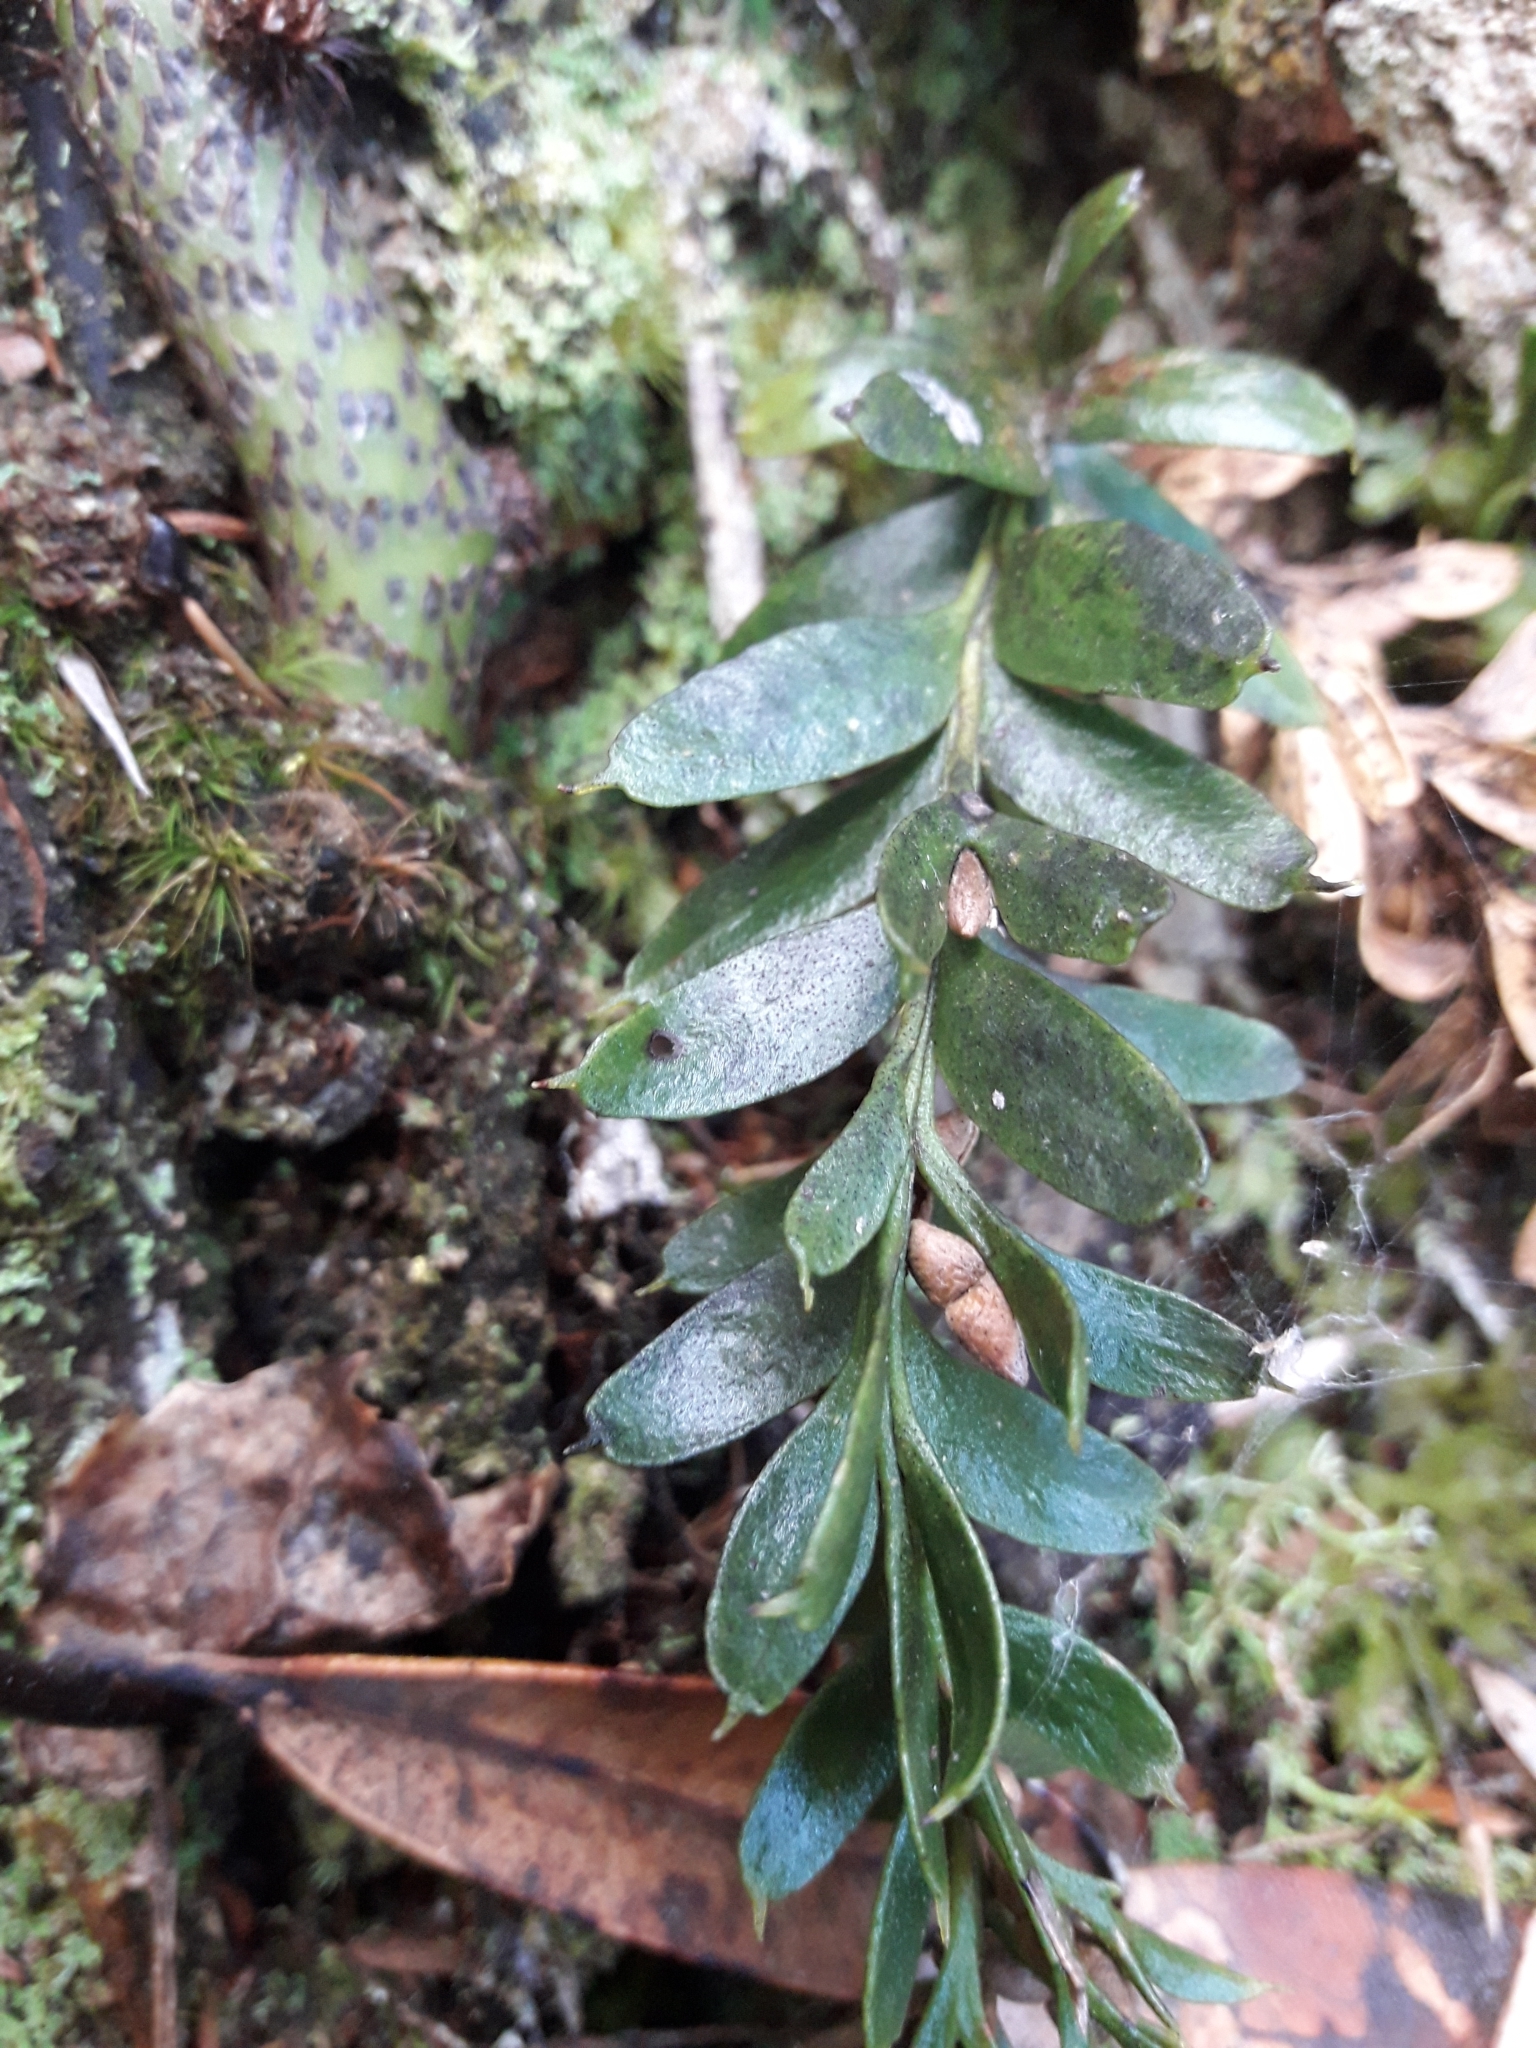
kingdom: Plantae
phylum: Tracheophyta
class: Polypodiopsida
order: Psilotales
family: Psilotaceae
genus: Tmesipteris
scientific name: Tmesipteris tannensis
